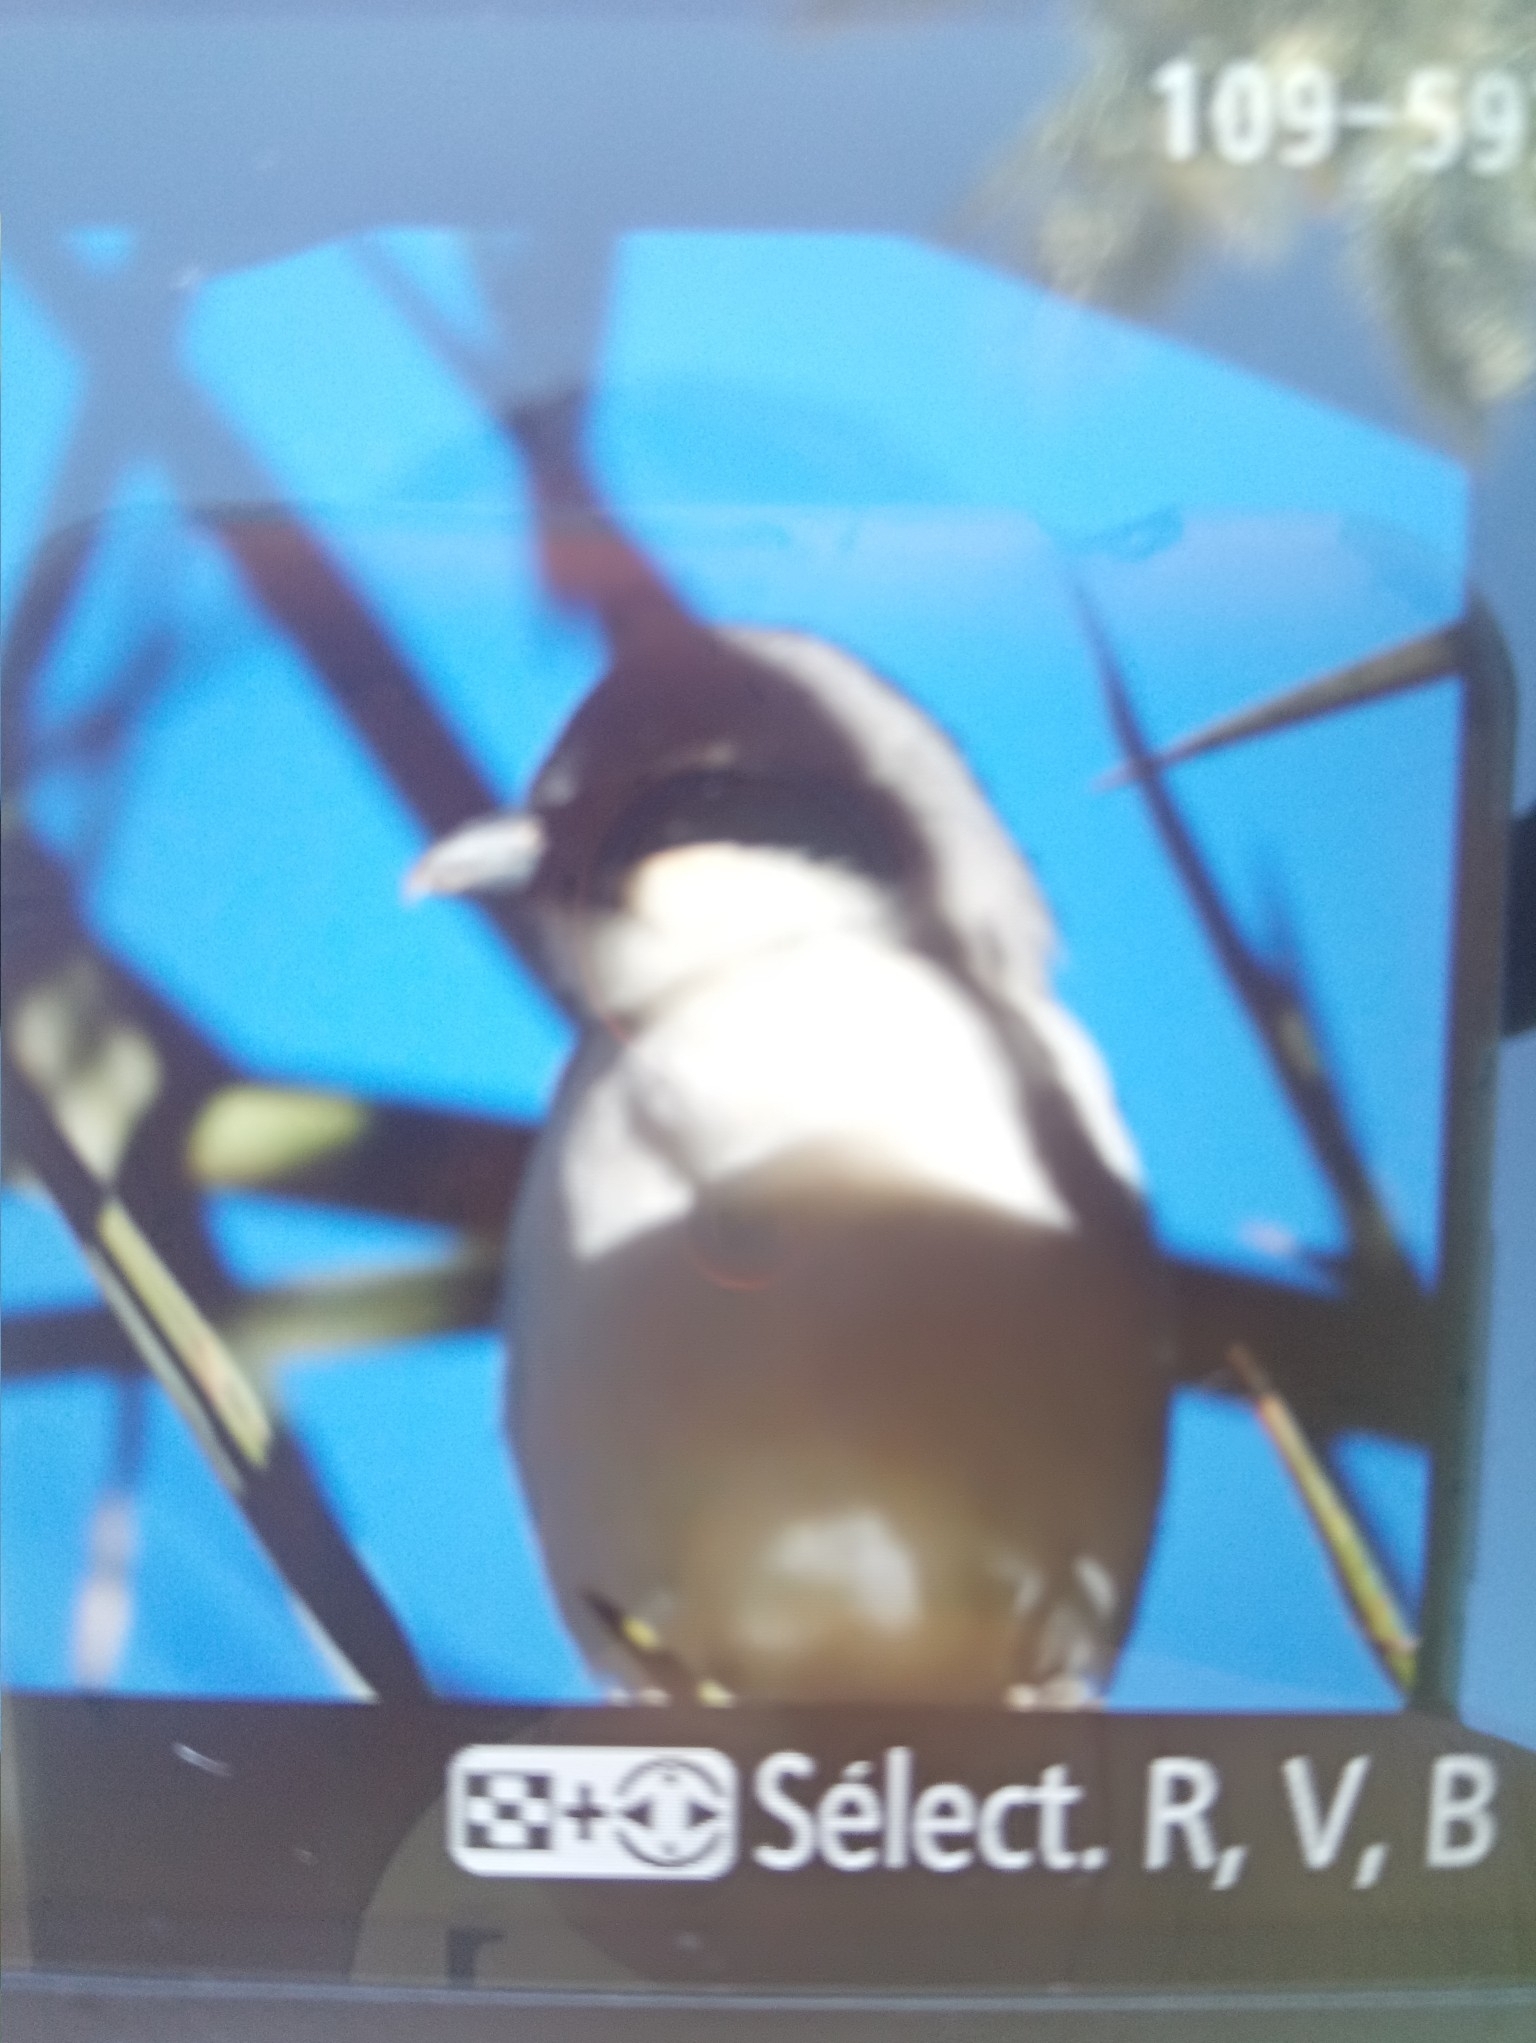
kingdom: Animalia
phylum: Chordata
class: Aves
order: Passeriformes
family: Laniidae
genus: Lanius
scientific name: Lanius excubitor
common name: Great grey shrike
